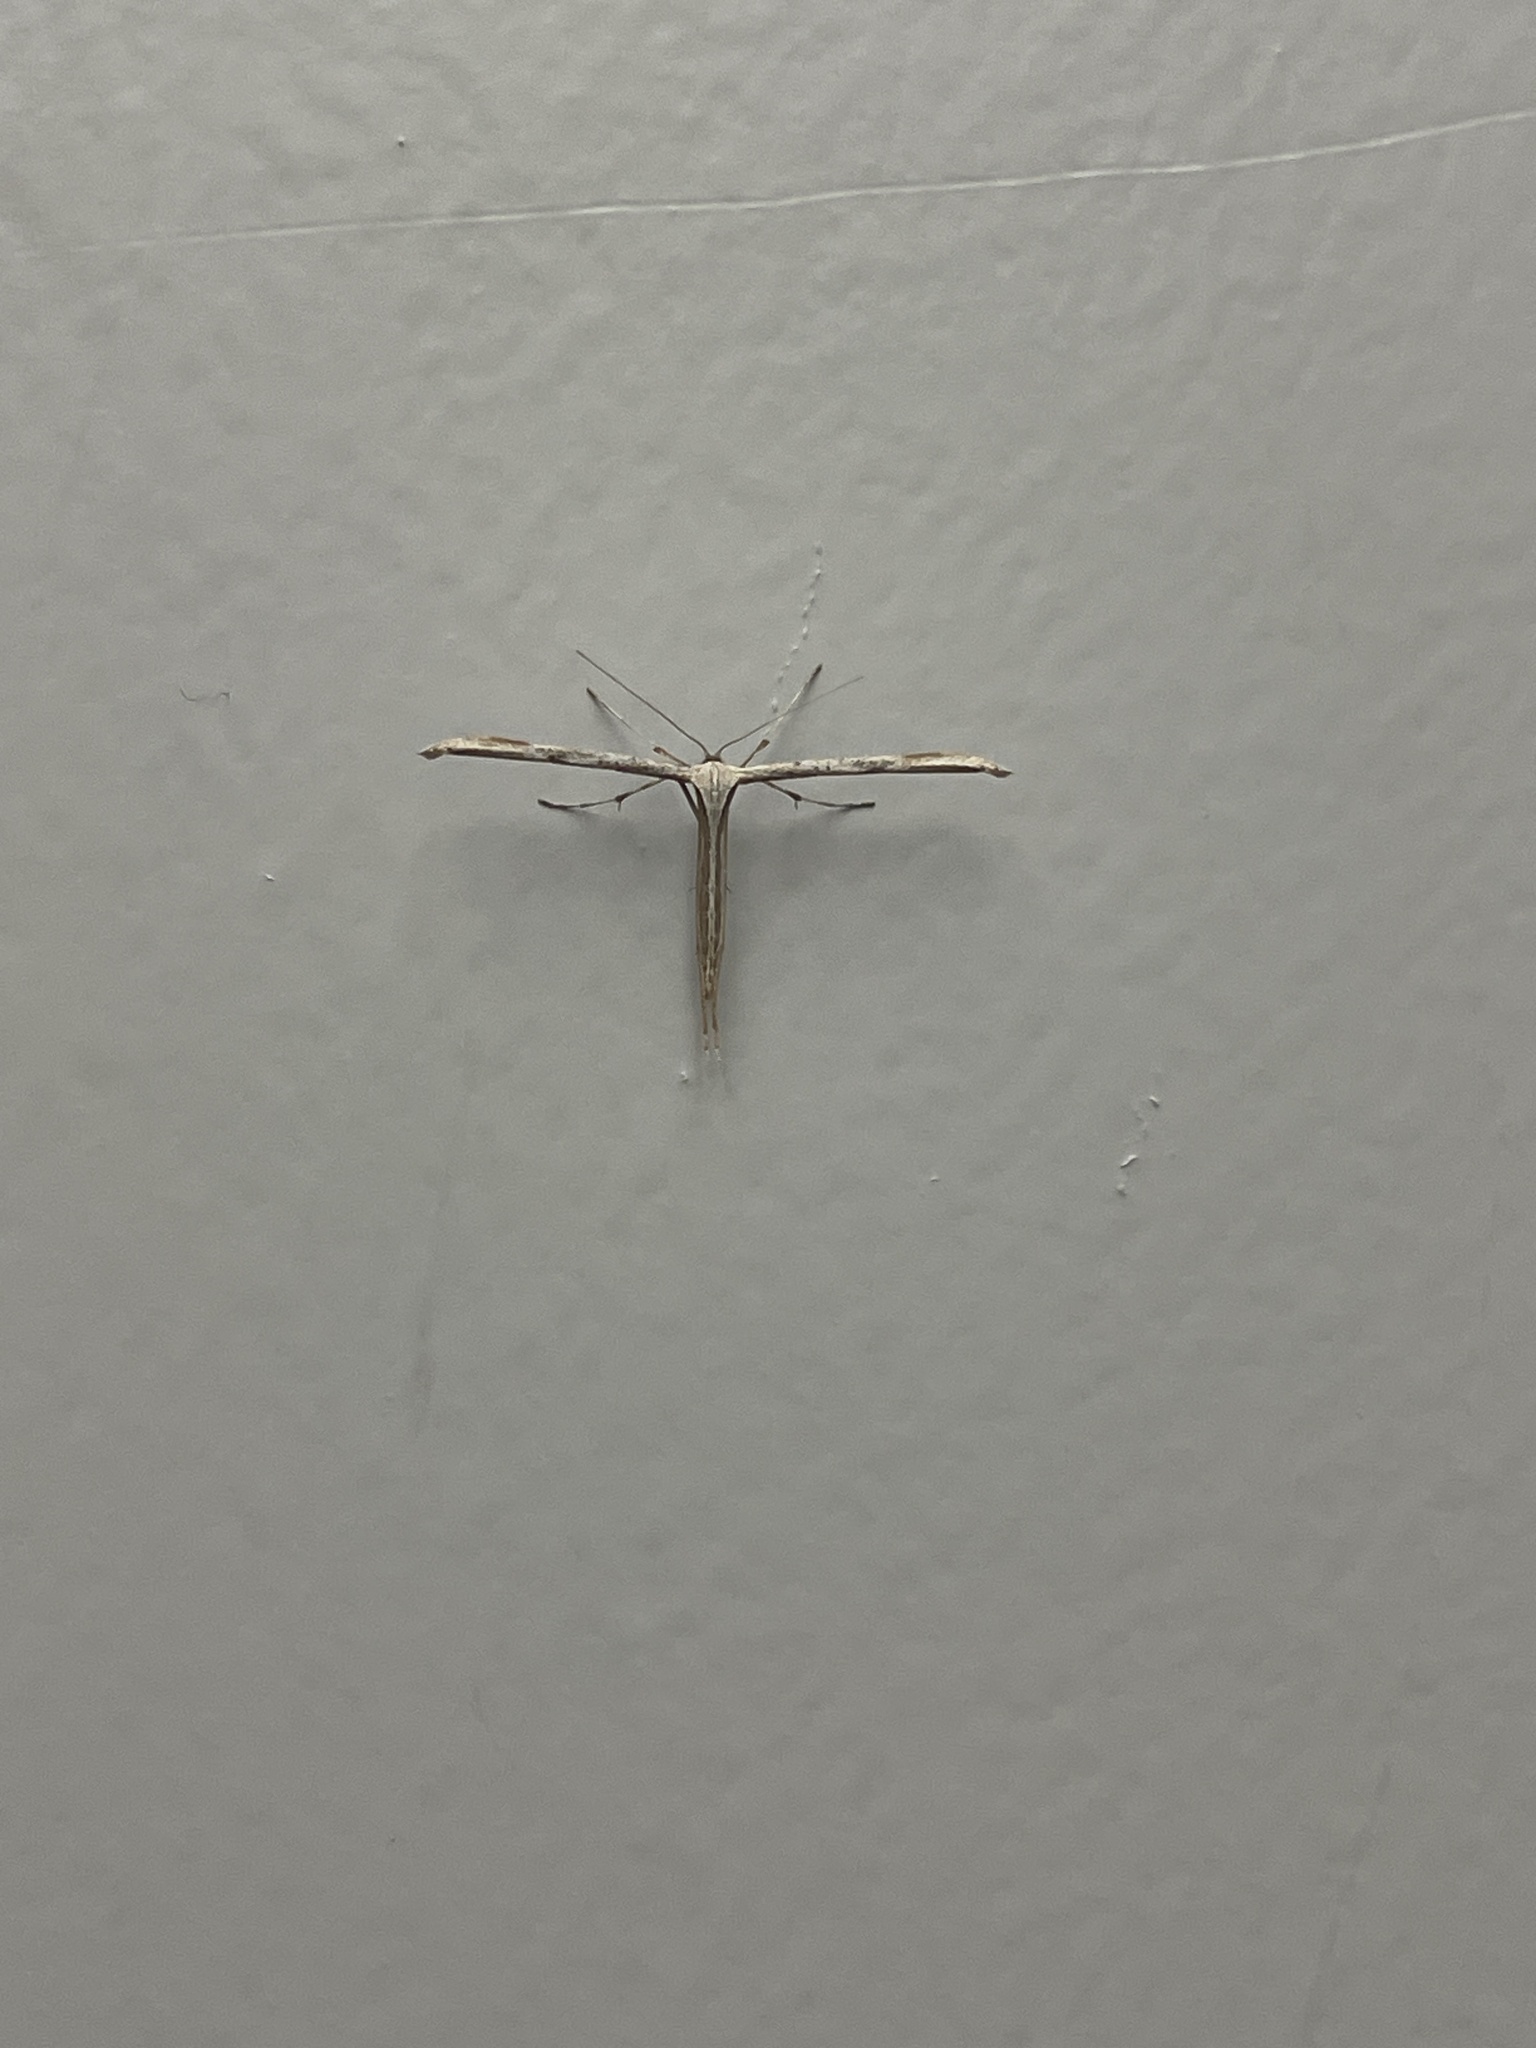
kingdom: Animalia
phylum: Arthropoda
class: Insecta
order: Lepidoptera
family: Pterophoridae
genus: Emmelina
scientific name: Emmelina monodactyla
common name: Common plume
